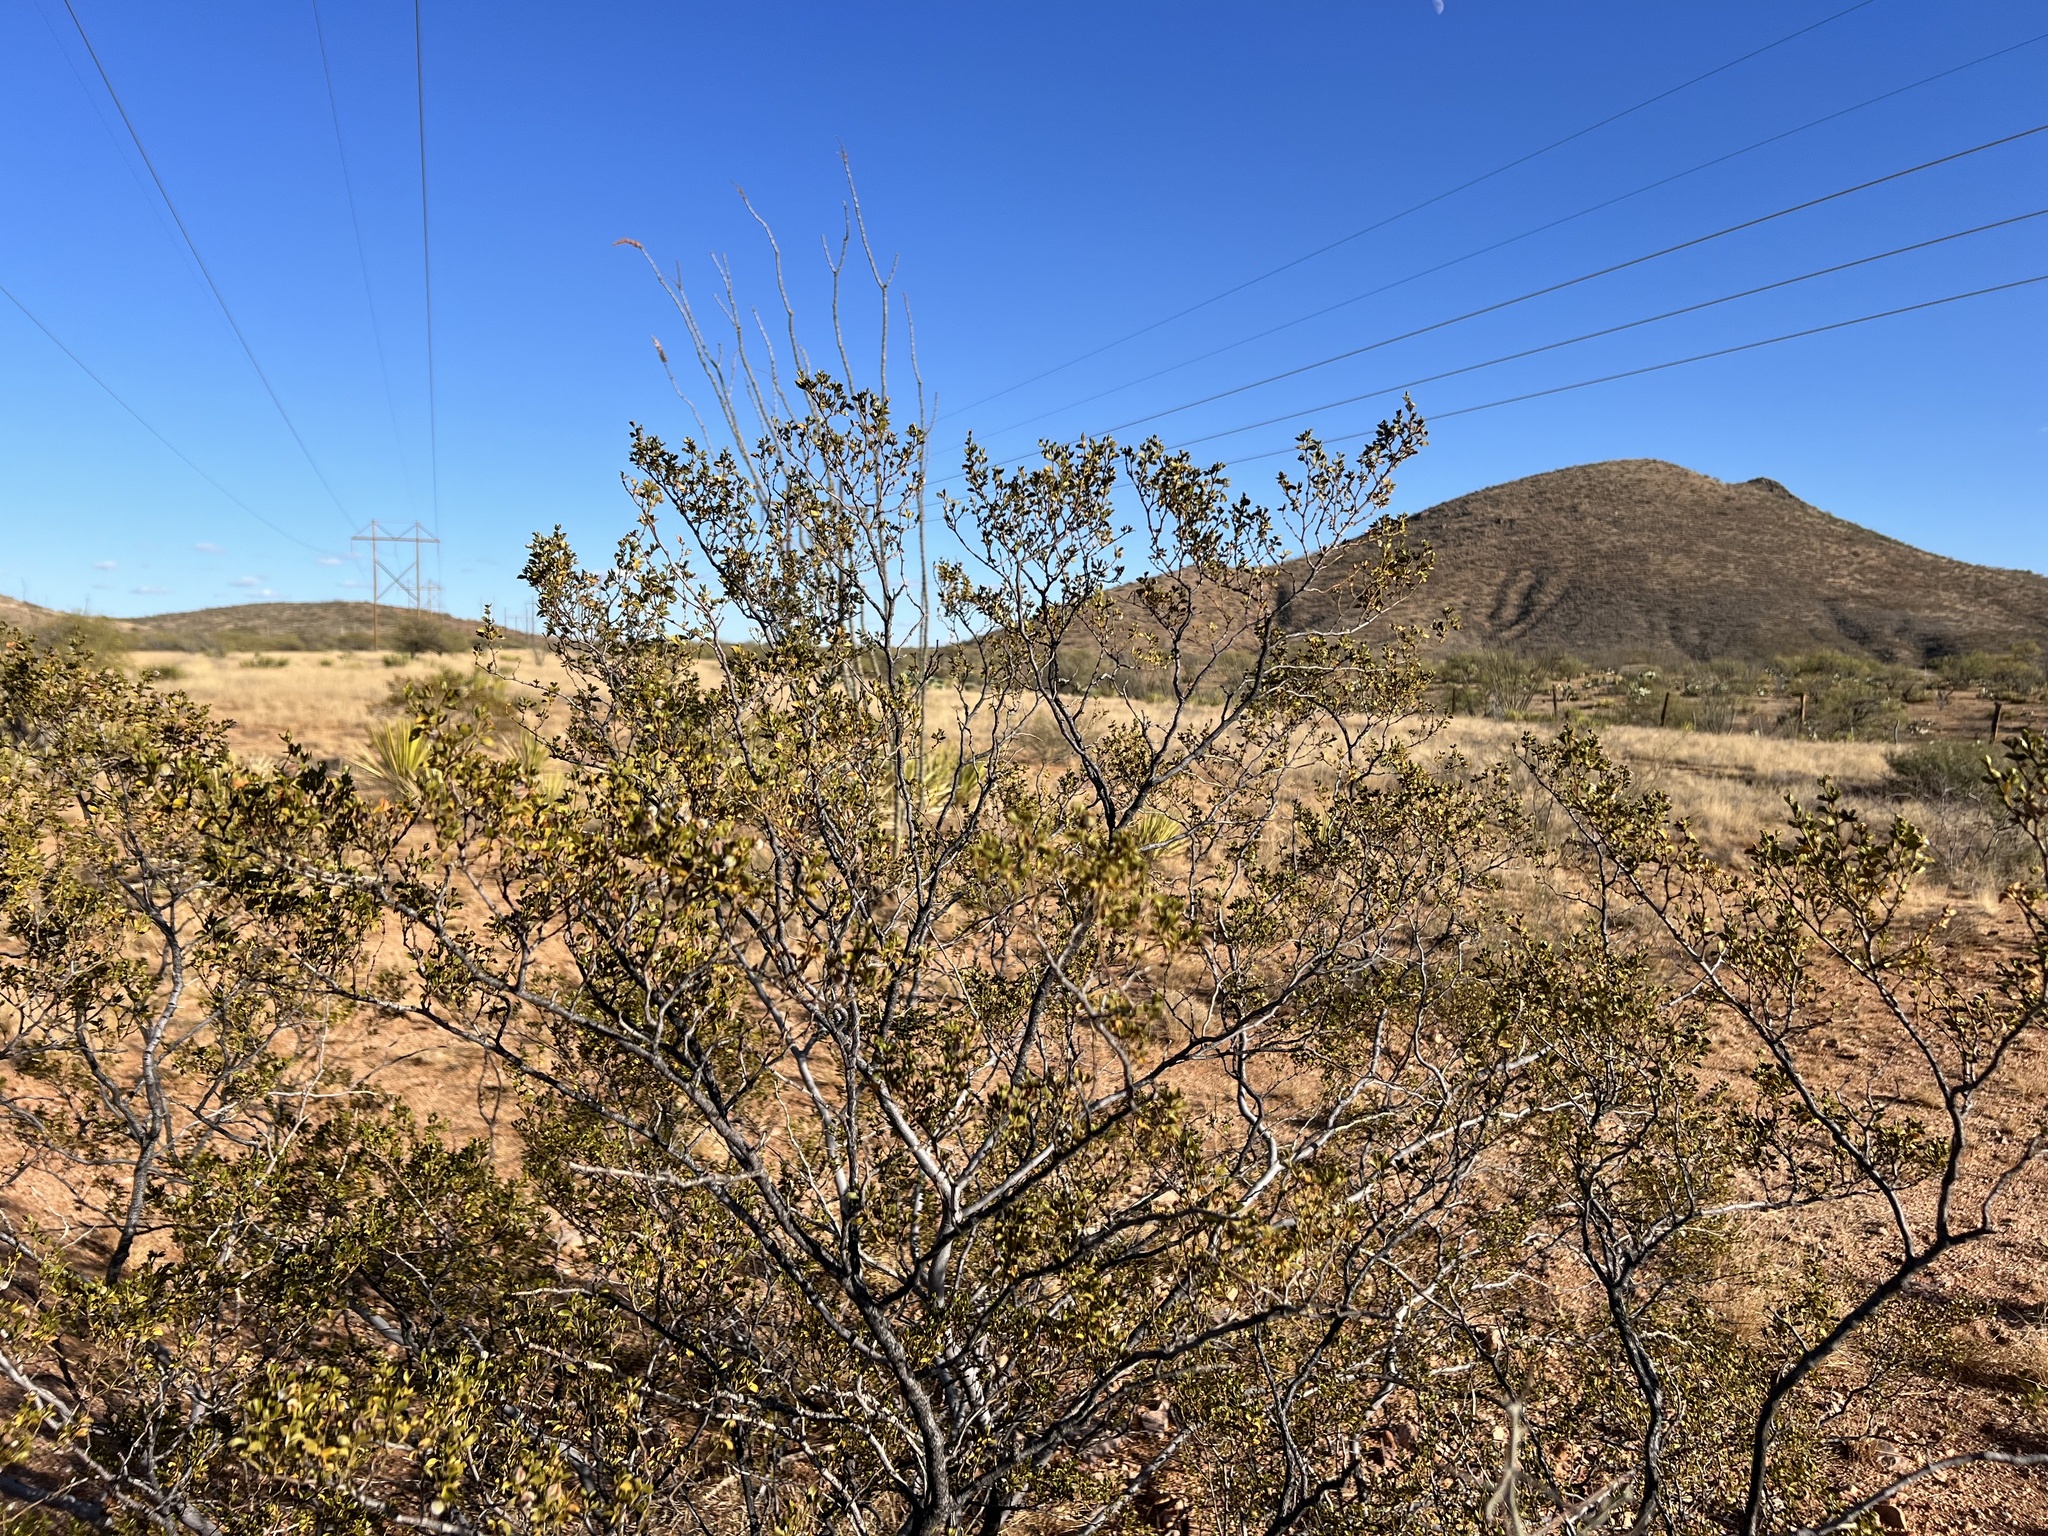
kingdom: Plantae
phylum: Tracheophyta
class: Magnoliopsida
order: Zygophyllales
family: Zygophyllaceae
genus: Larrea
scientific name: Larrea tridentata
